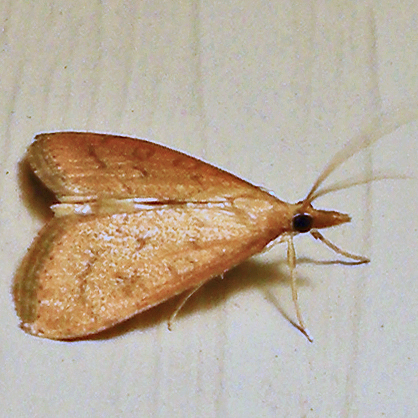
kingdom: Animalia
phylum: Arthropoda
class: Insecta
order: Lepidoptera
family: Crambidae
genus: Udea
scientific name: Udea rubigalis
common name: Celery leaftier moth
